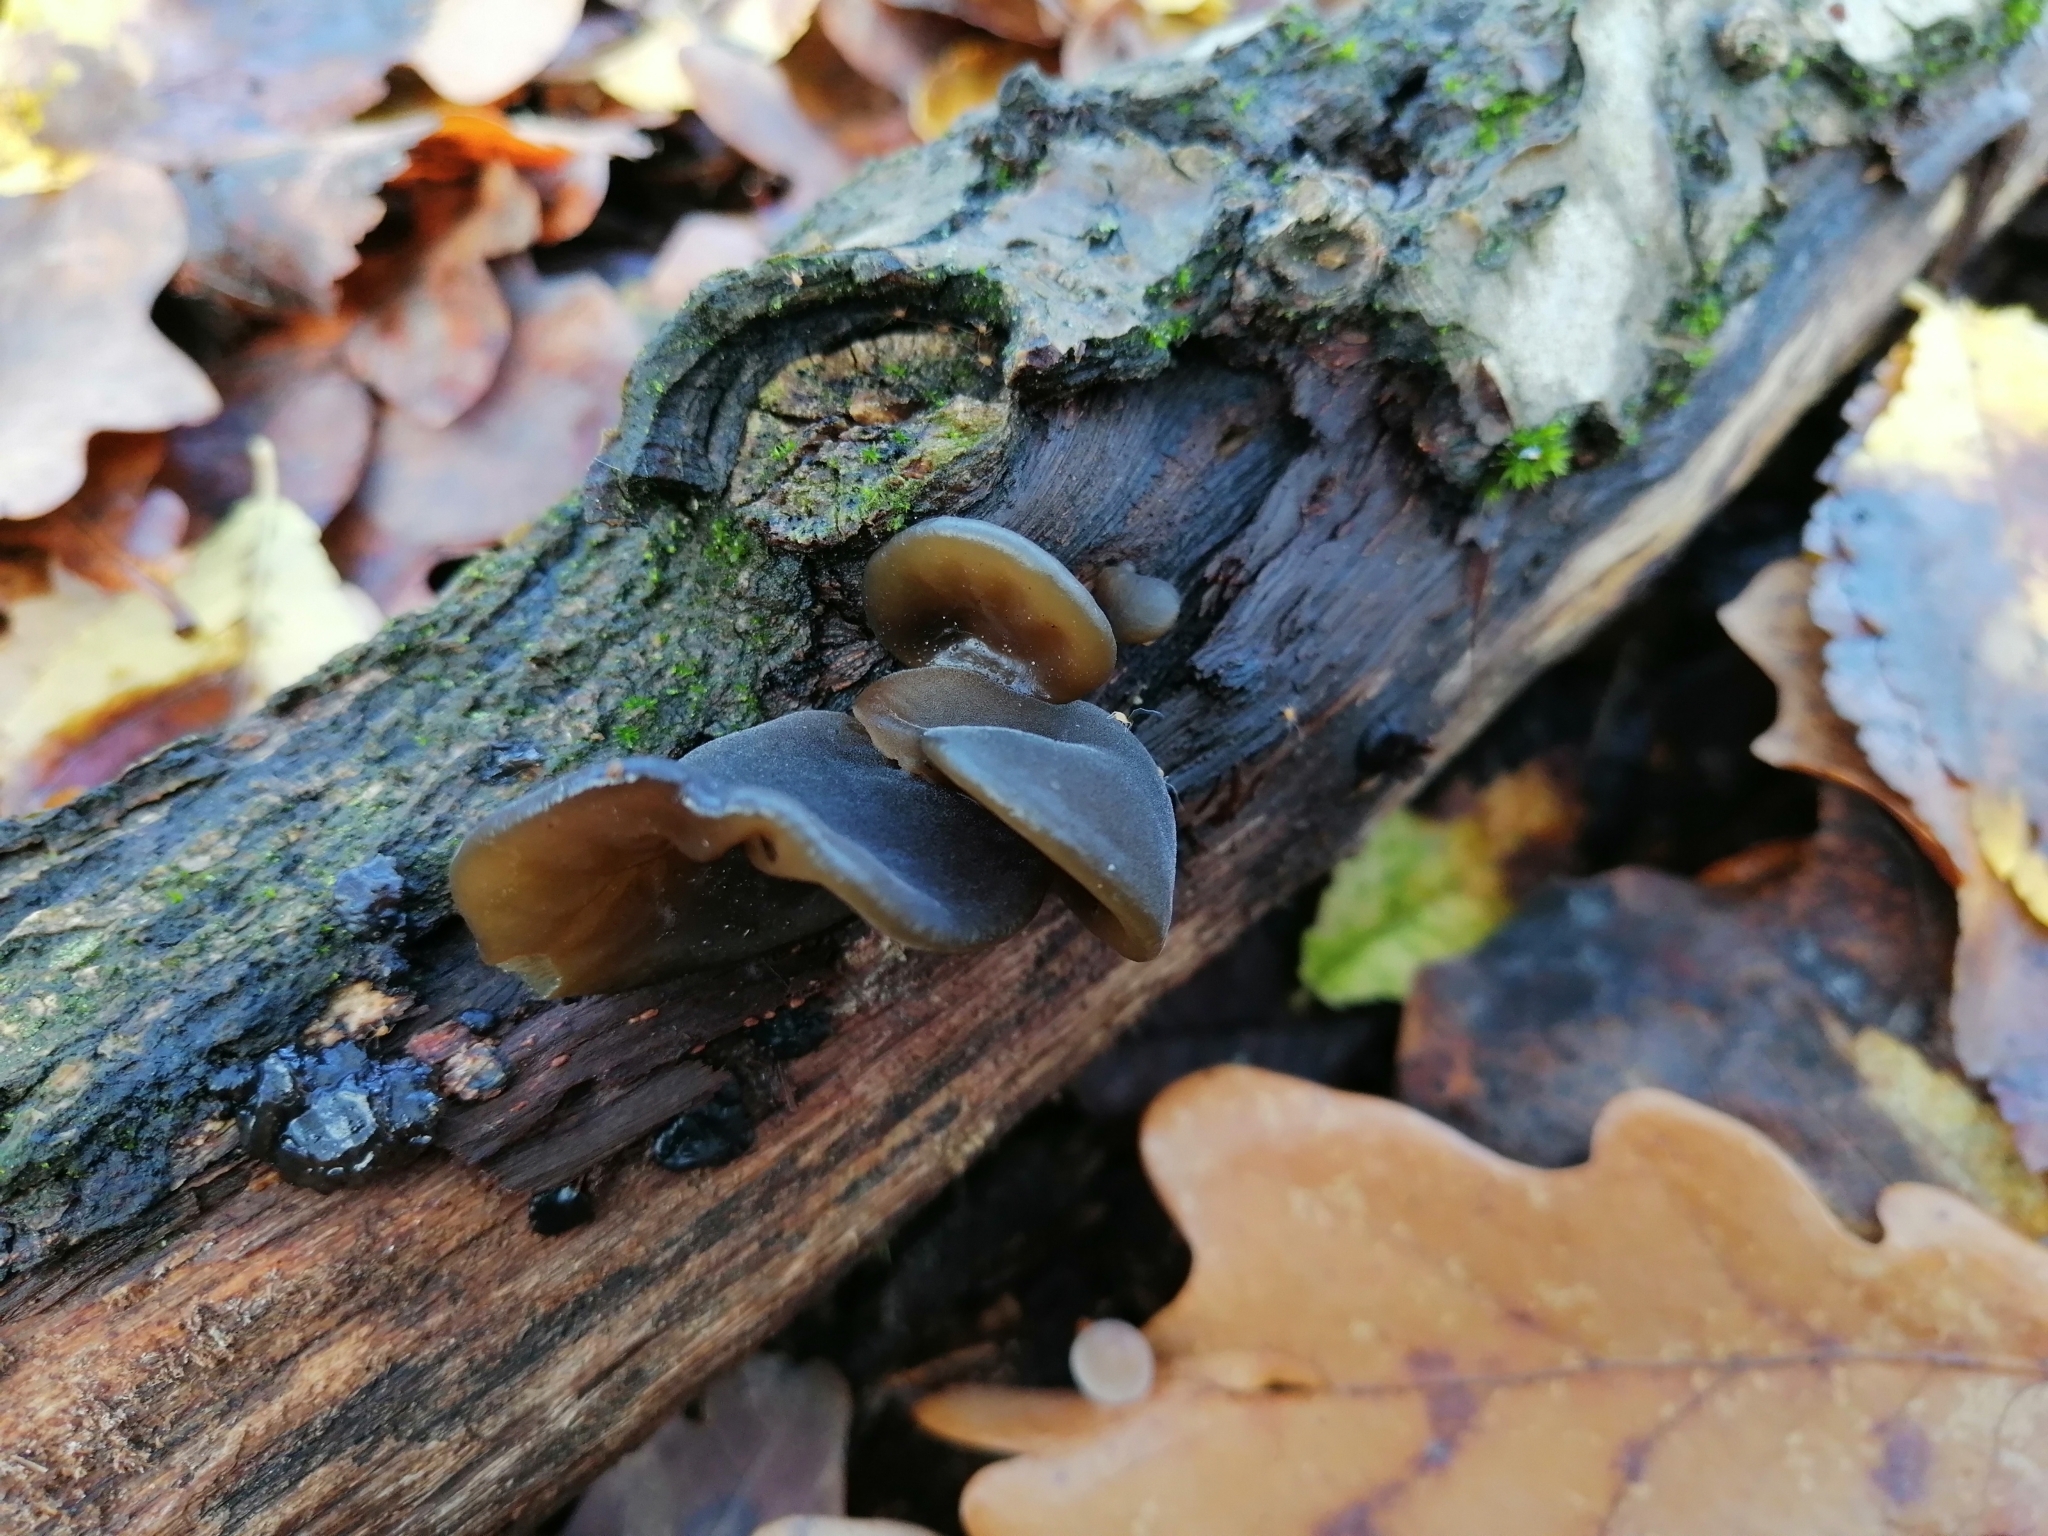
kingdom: Fungi
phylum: Basidiomycota
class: Agaricomycetes
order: Auriculariales
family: Auriculariaceae
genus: Auricularia
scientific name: Auricularia auricula-judae
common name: Jelly ear
